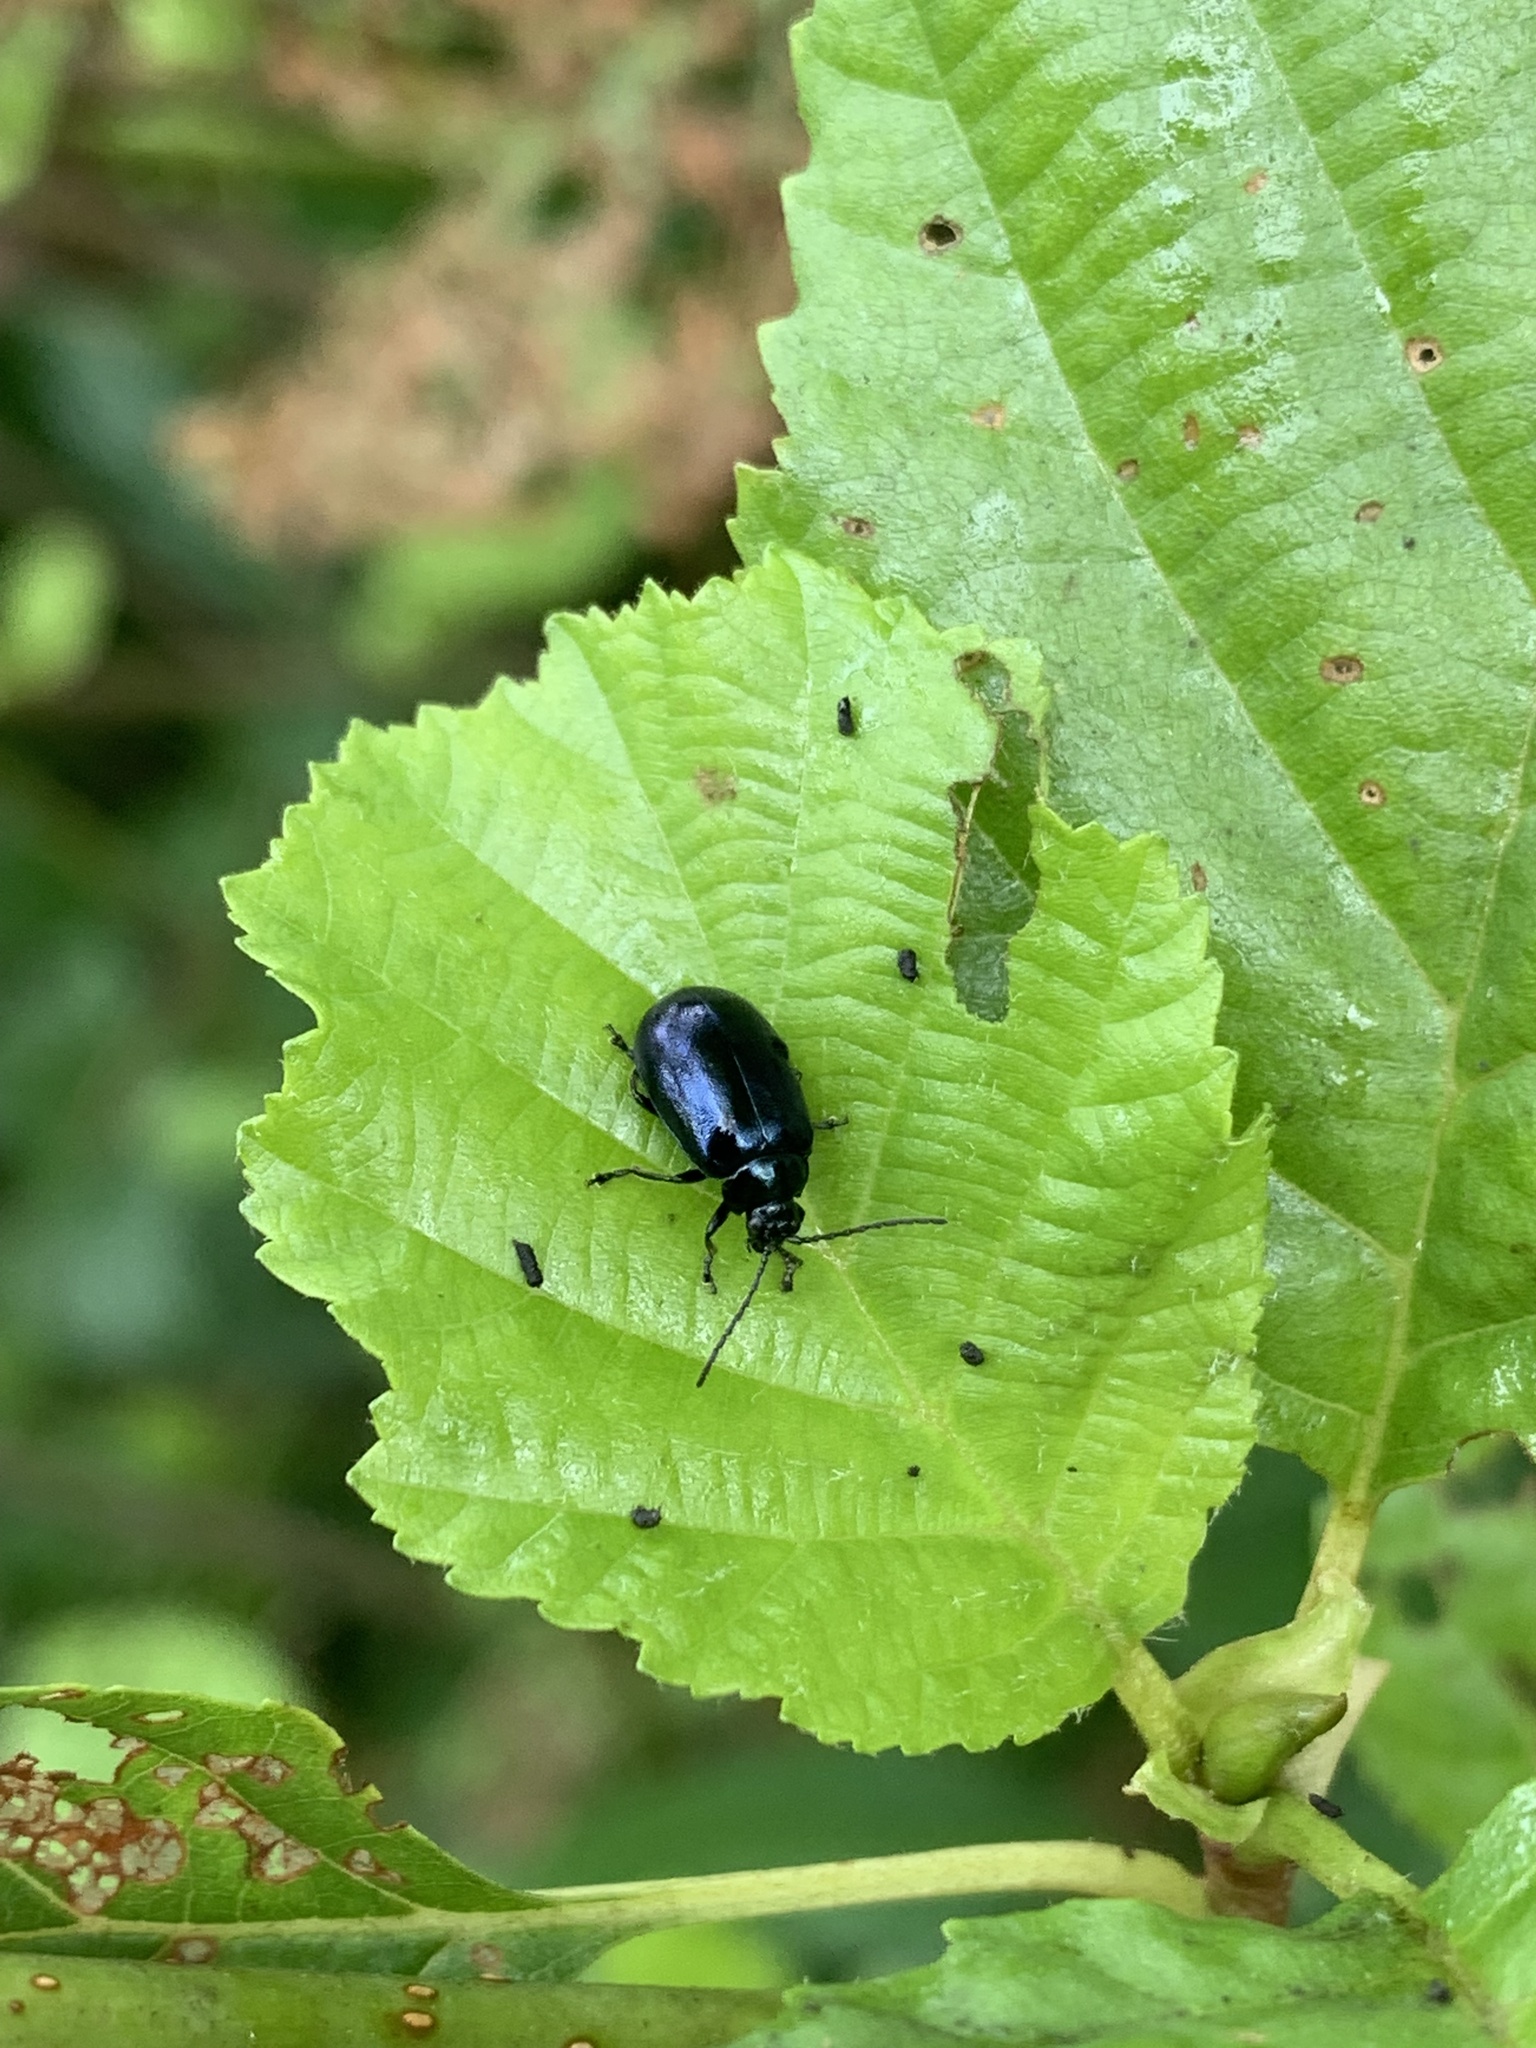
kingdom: Animalia
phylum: Arthropoda
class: Insecta
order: Coleoptera
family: Chrysomelidae
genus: Agelastica
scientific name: Agelastica alni
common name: Alder leaf beetle
